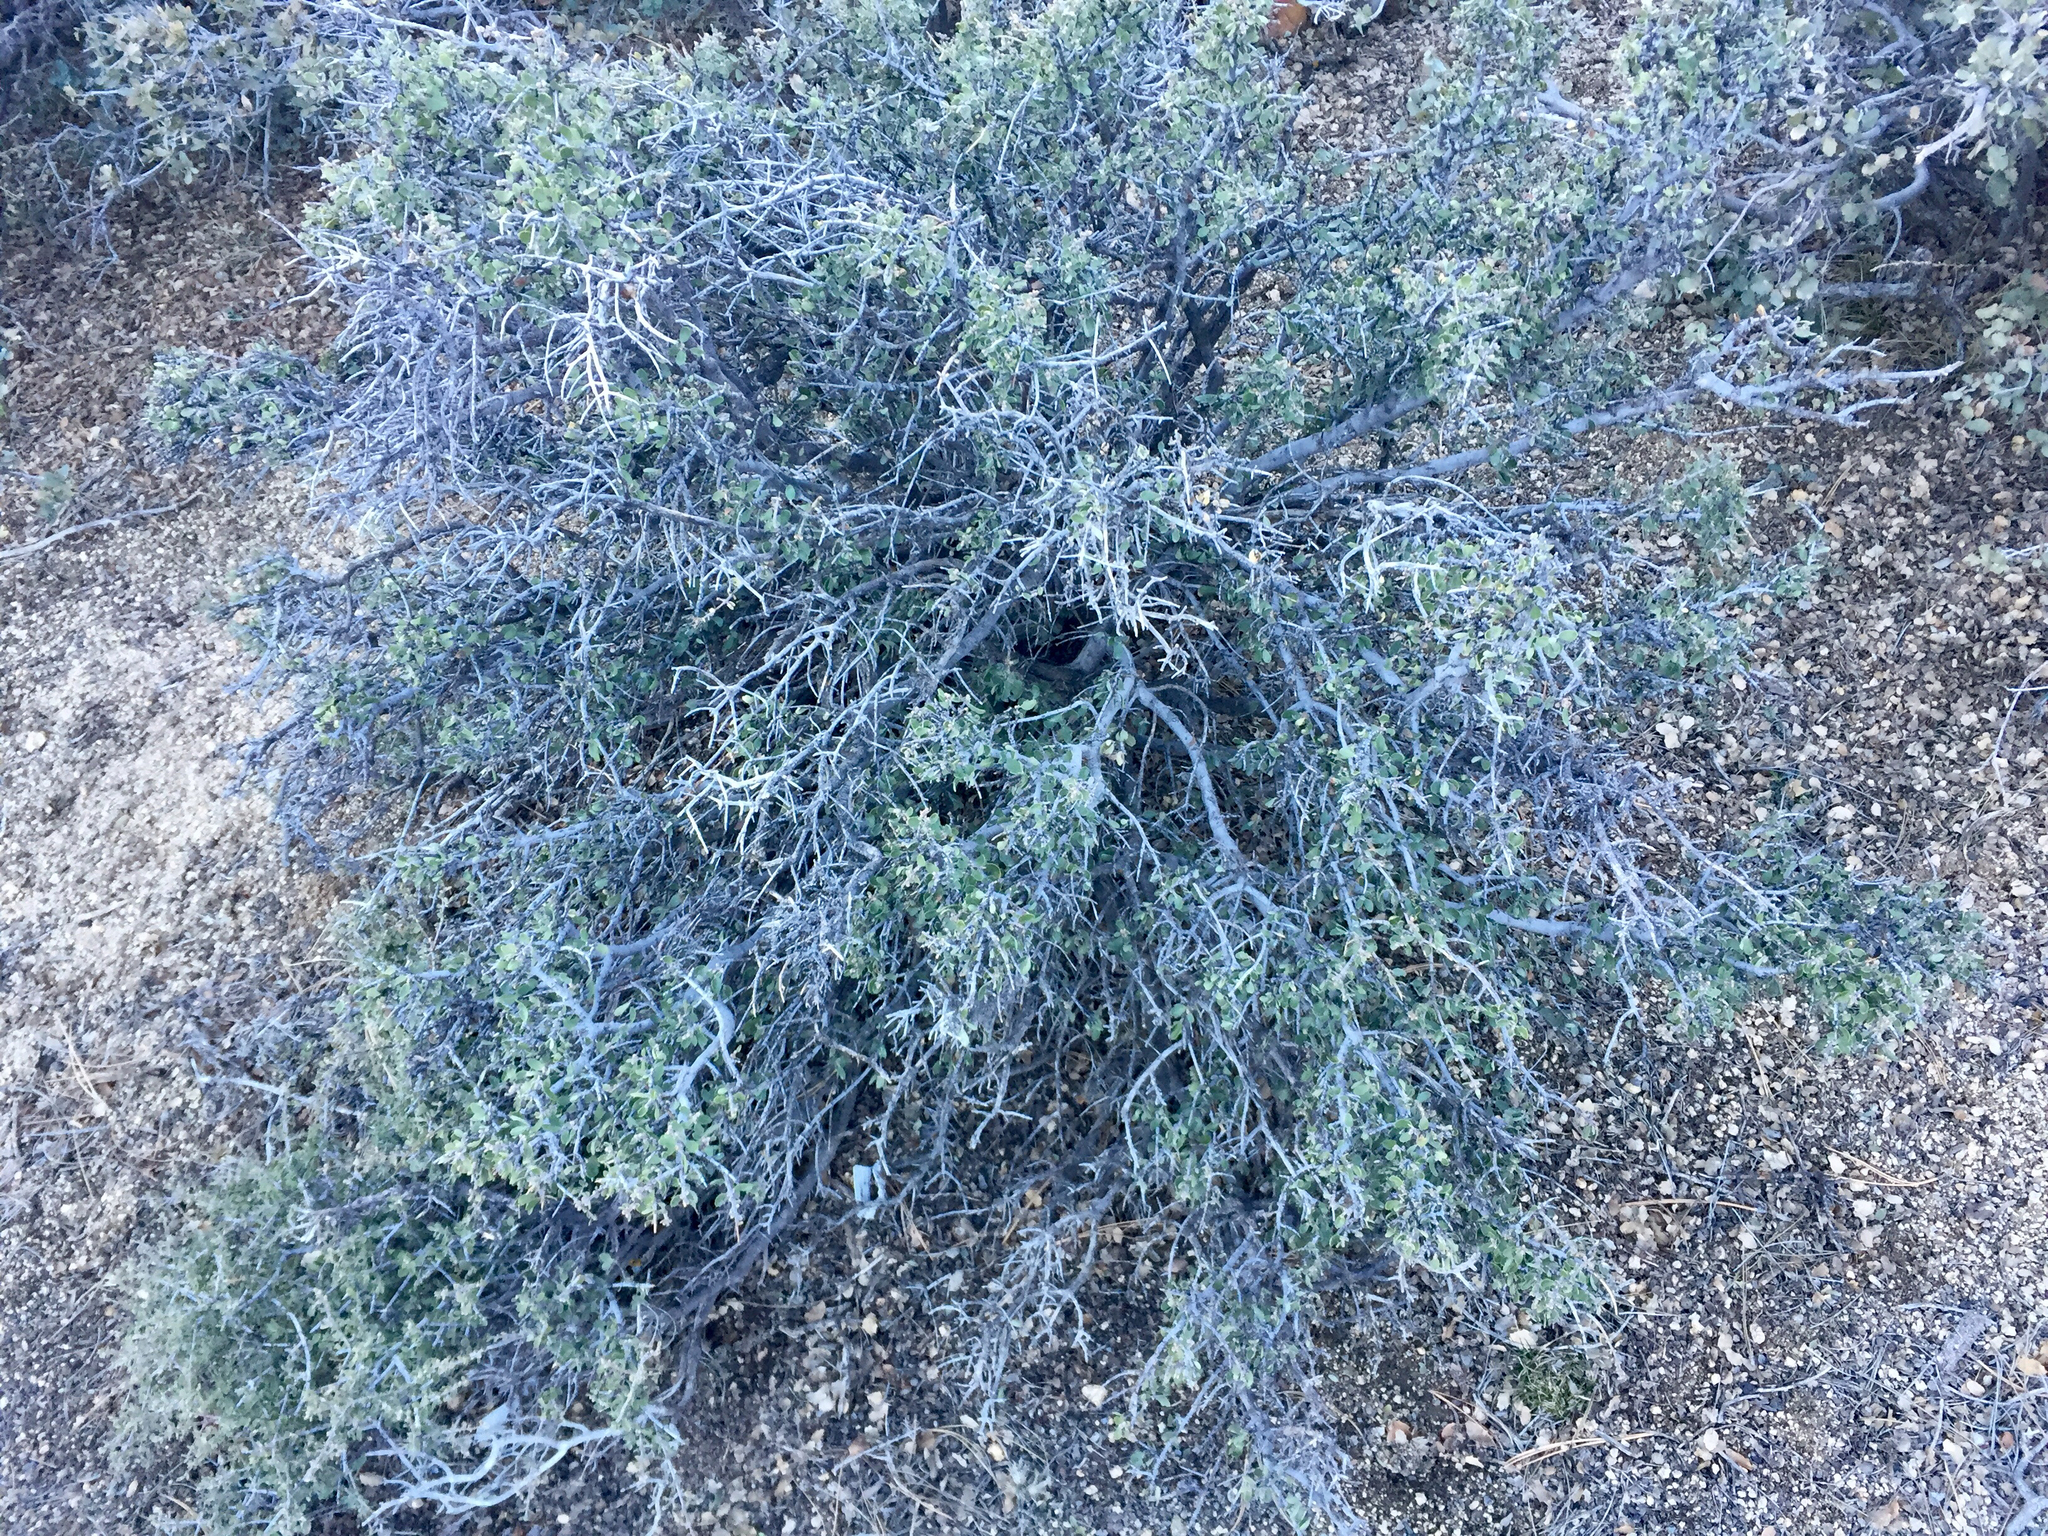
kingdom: Plantae
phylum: Tracheophyta
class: Magnoliopsida
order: Rosales
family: Rhamnaceae
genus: Ceanothus
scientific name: Ceanothus pauciflorus
